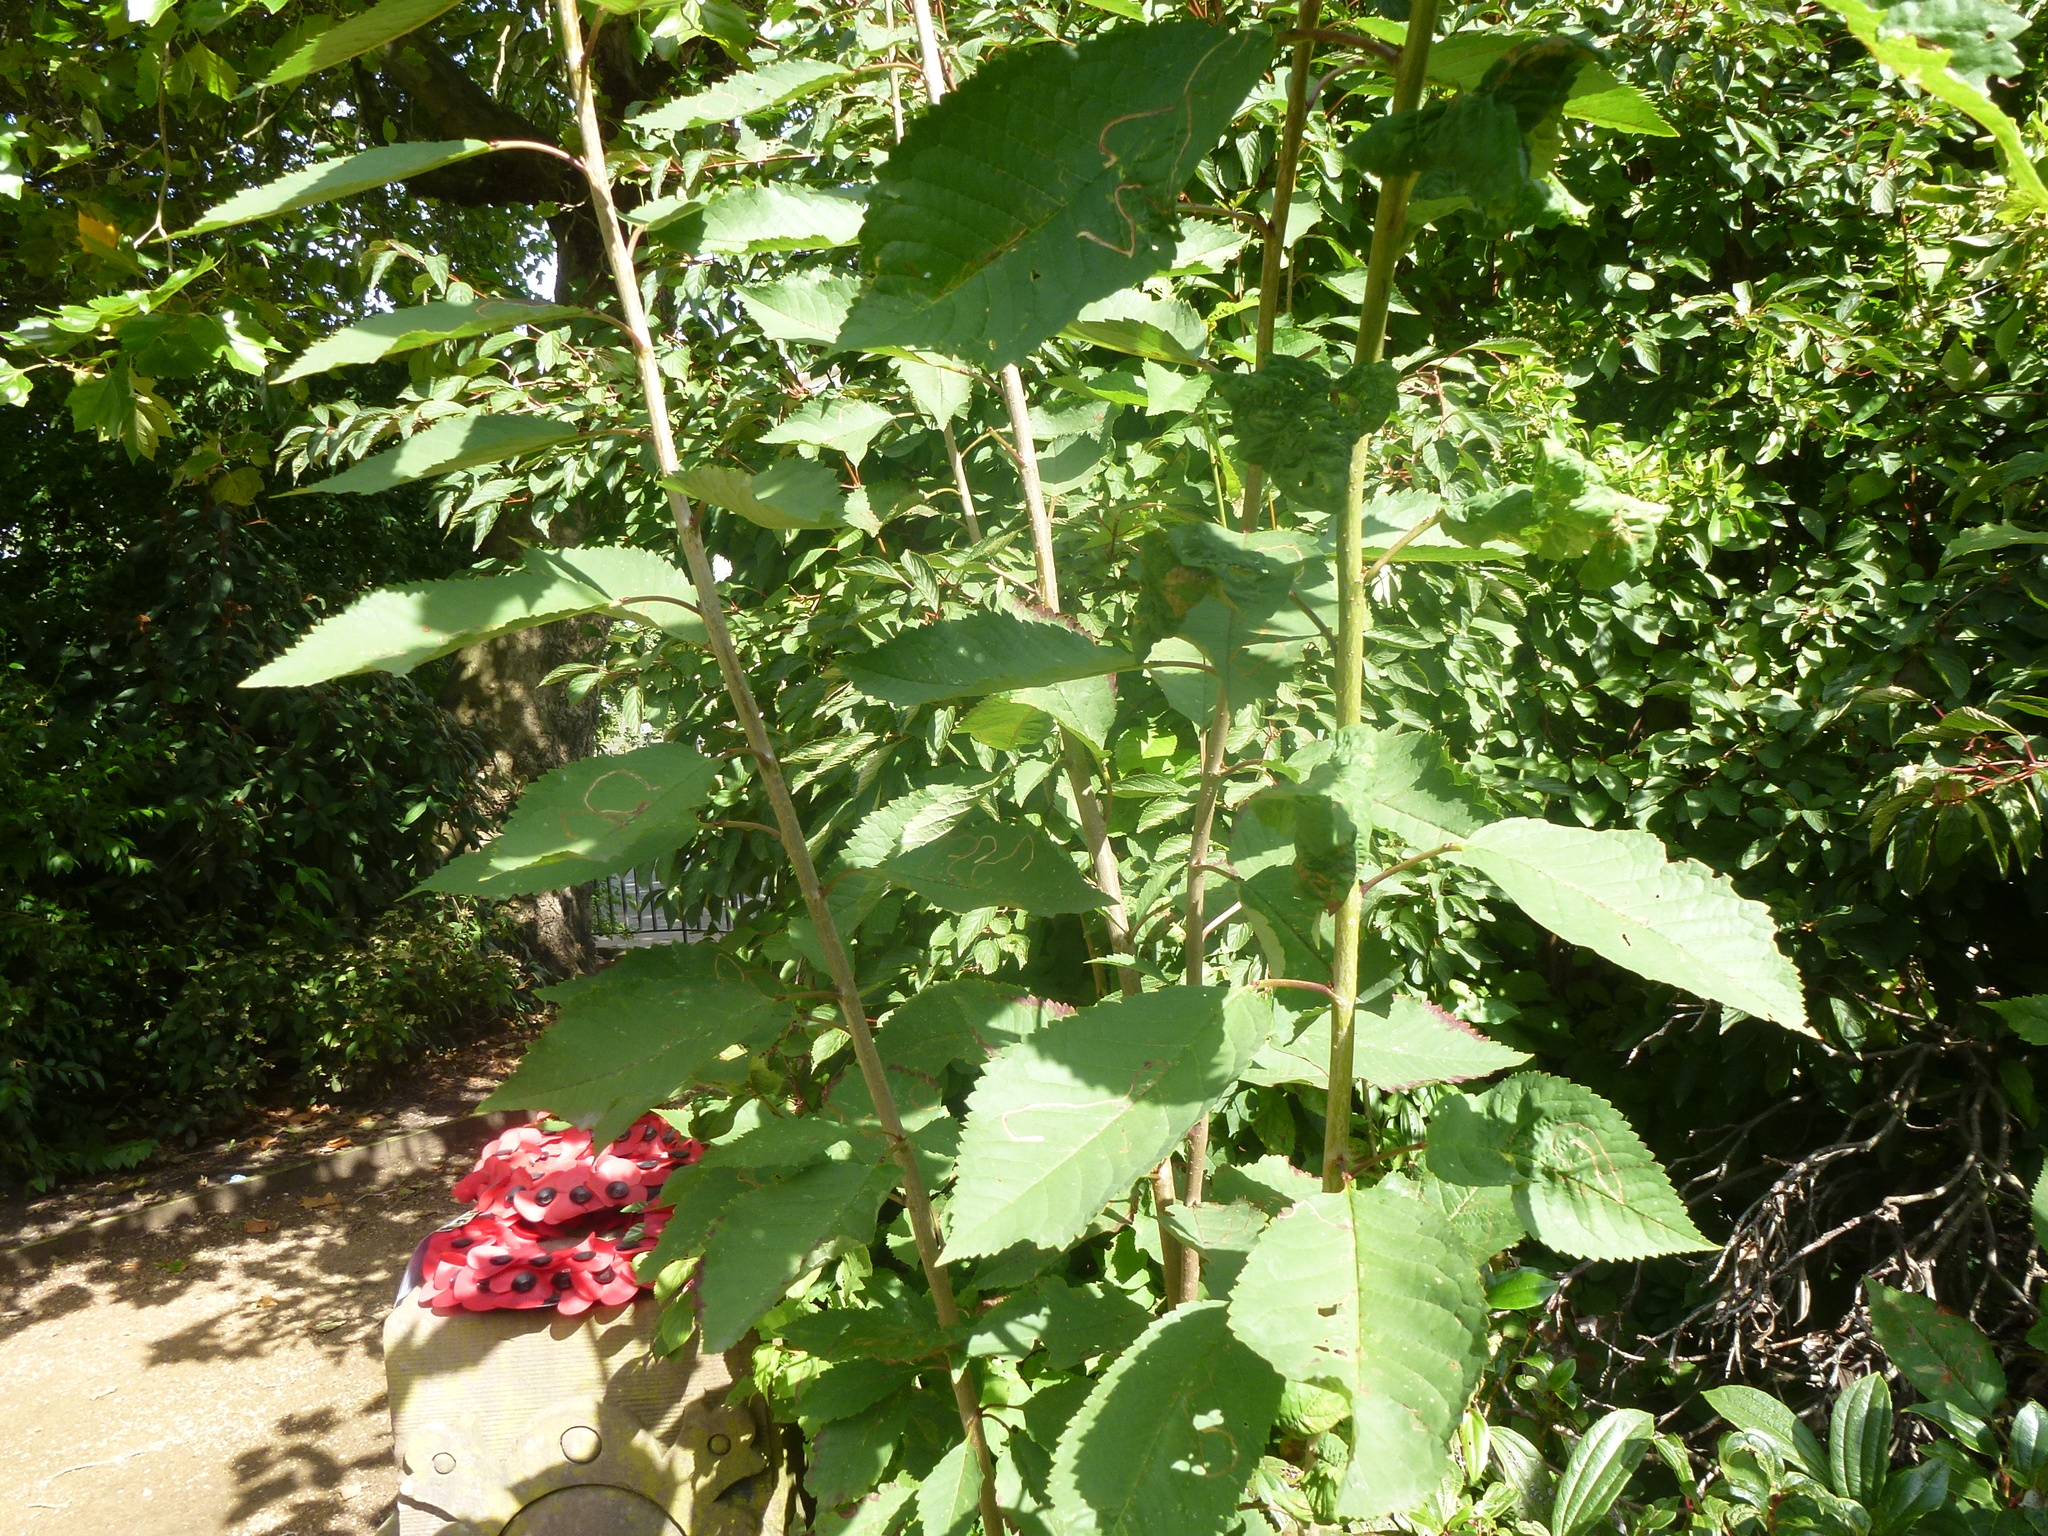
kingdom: Plantae
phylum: Tracheophyta
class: Magnoliopsida
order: Rosales
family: Rosaceae
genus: Prunus
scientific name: Prunus avium
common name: Sweet cherry
